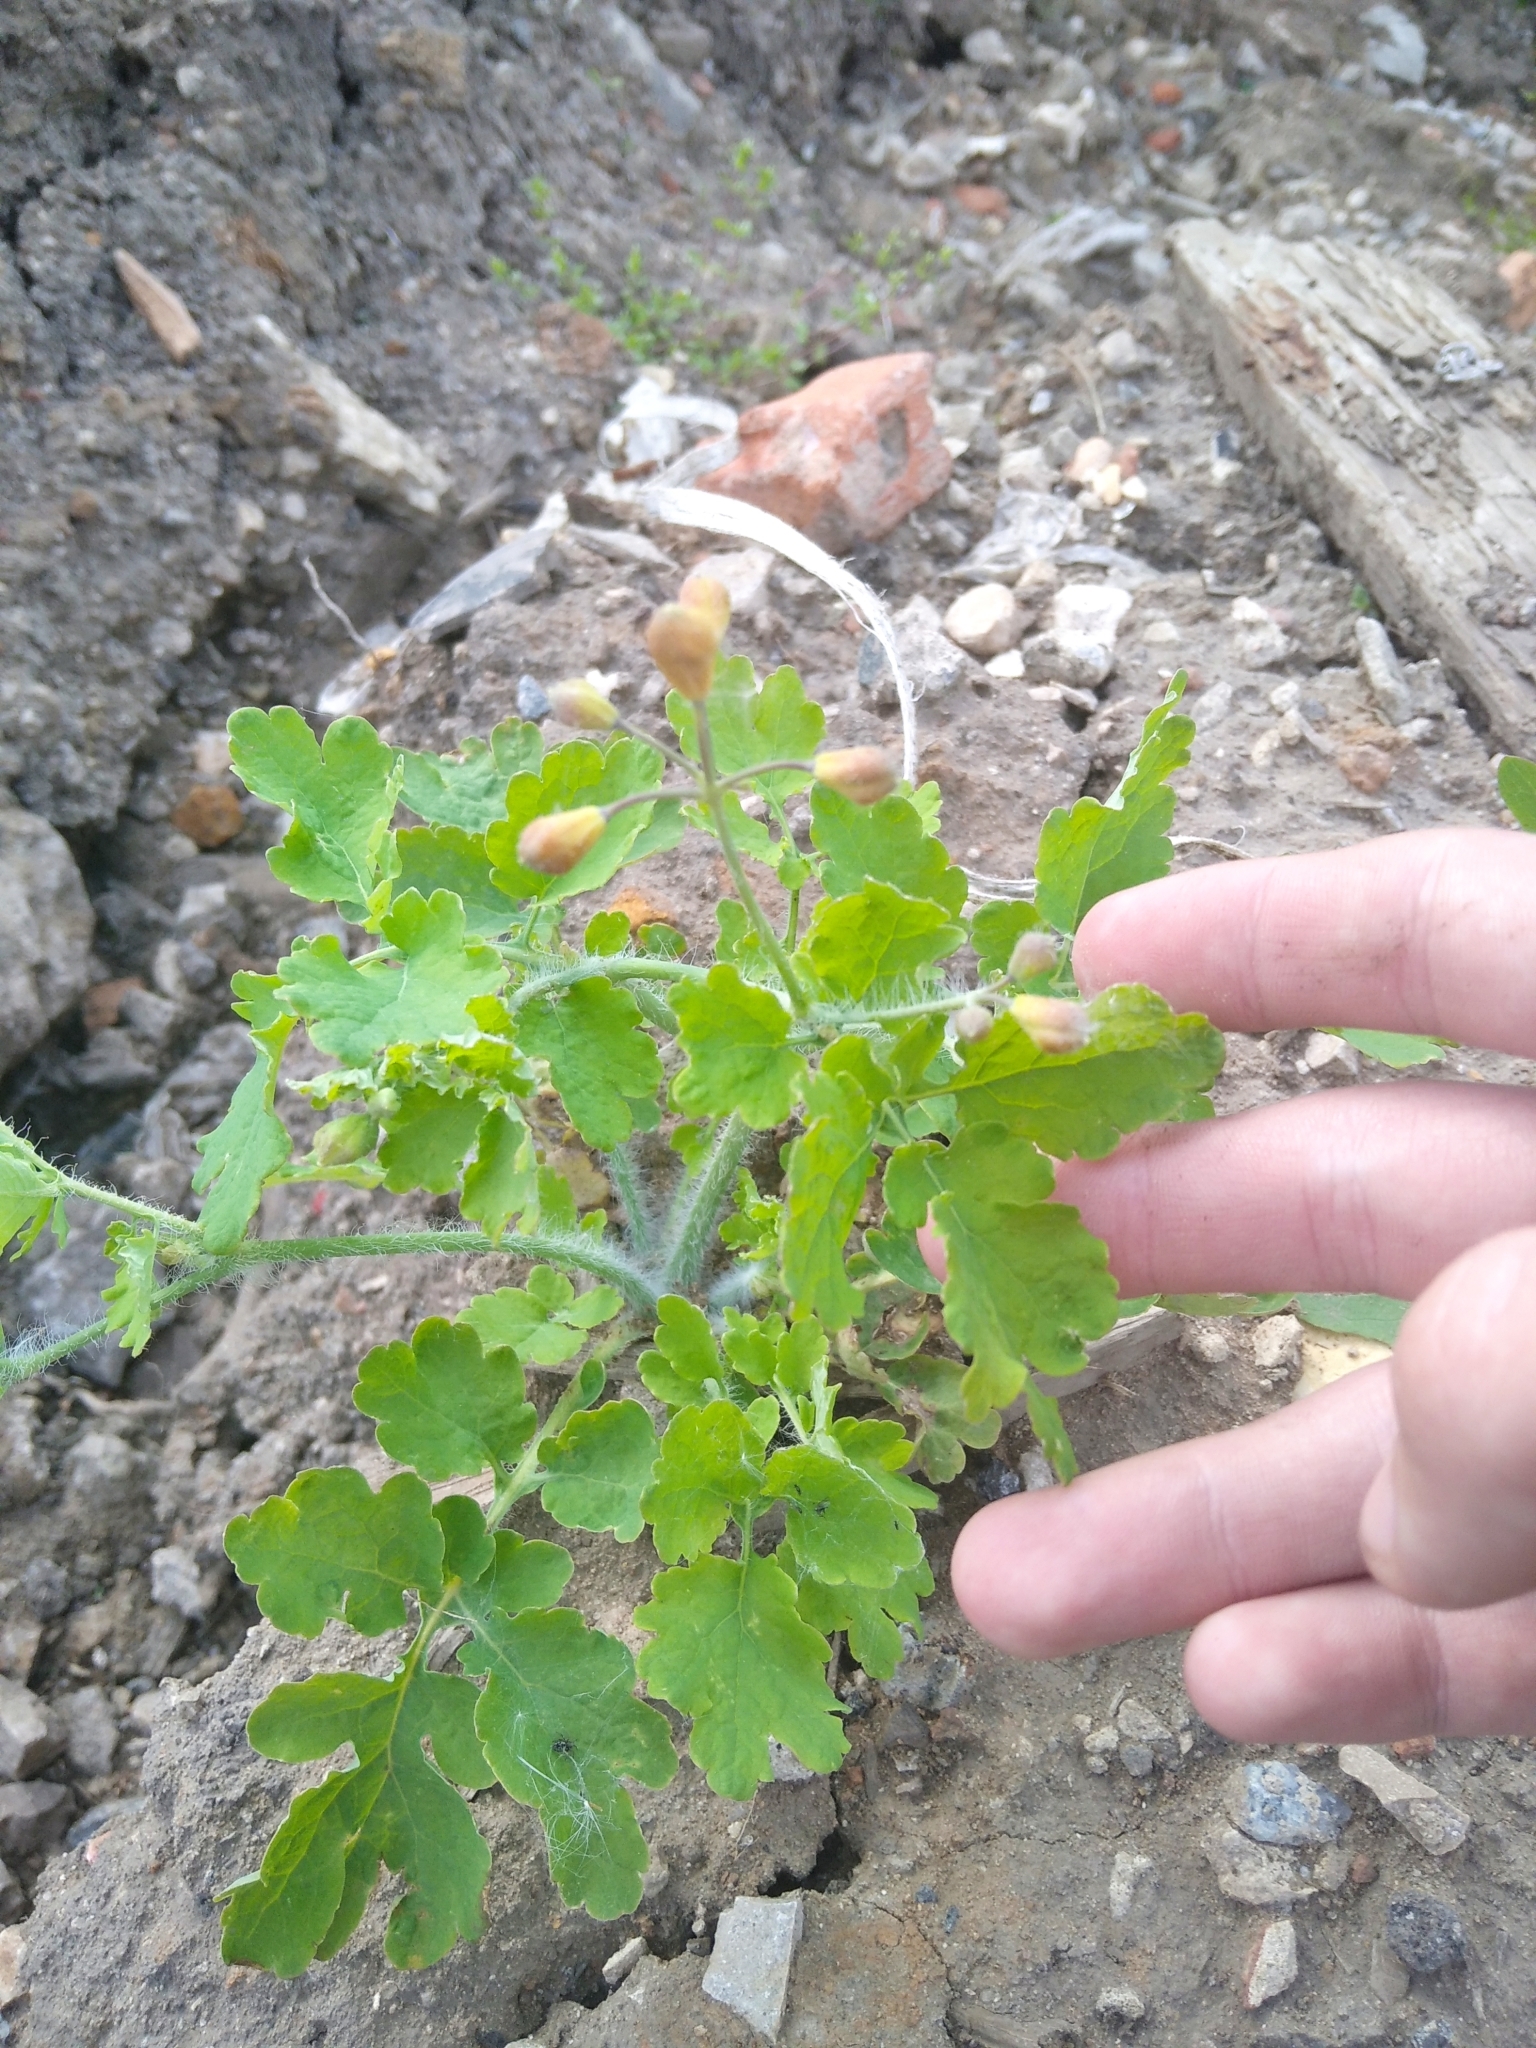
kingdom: Plantae
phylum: Tracheophyta
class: Magnoliopsida
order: Ranunculales
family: Papaveraceae
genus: Chelidonium
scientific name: Chelidonium majus
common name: Greater celandine
